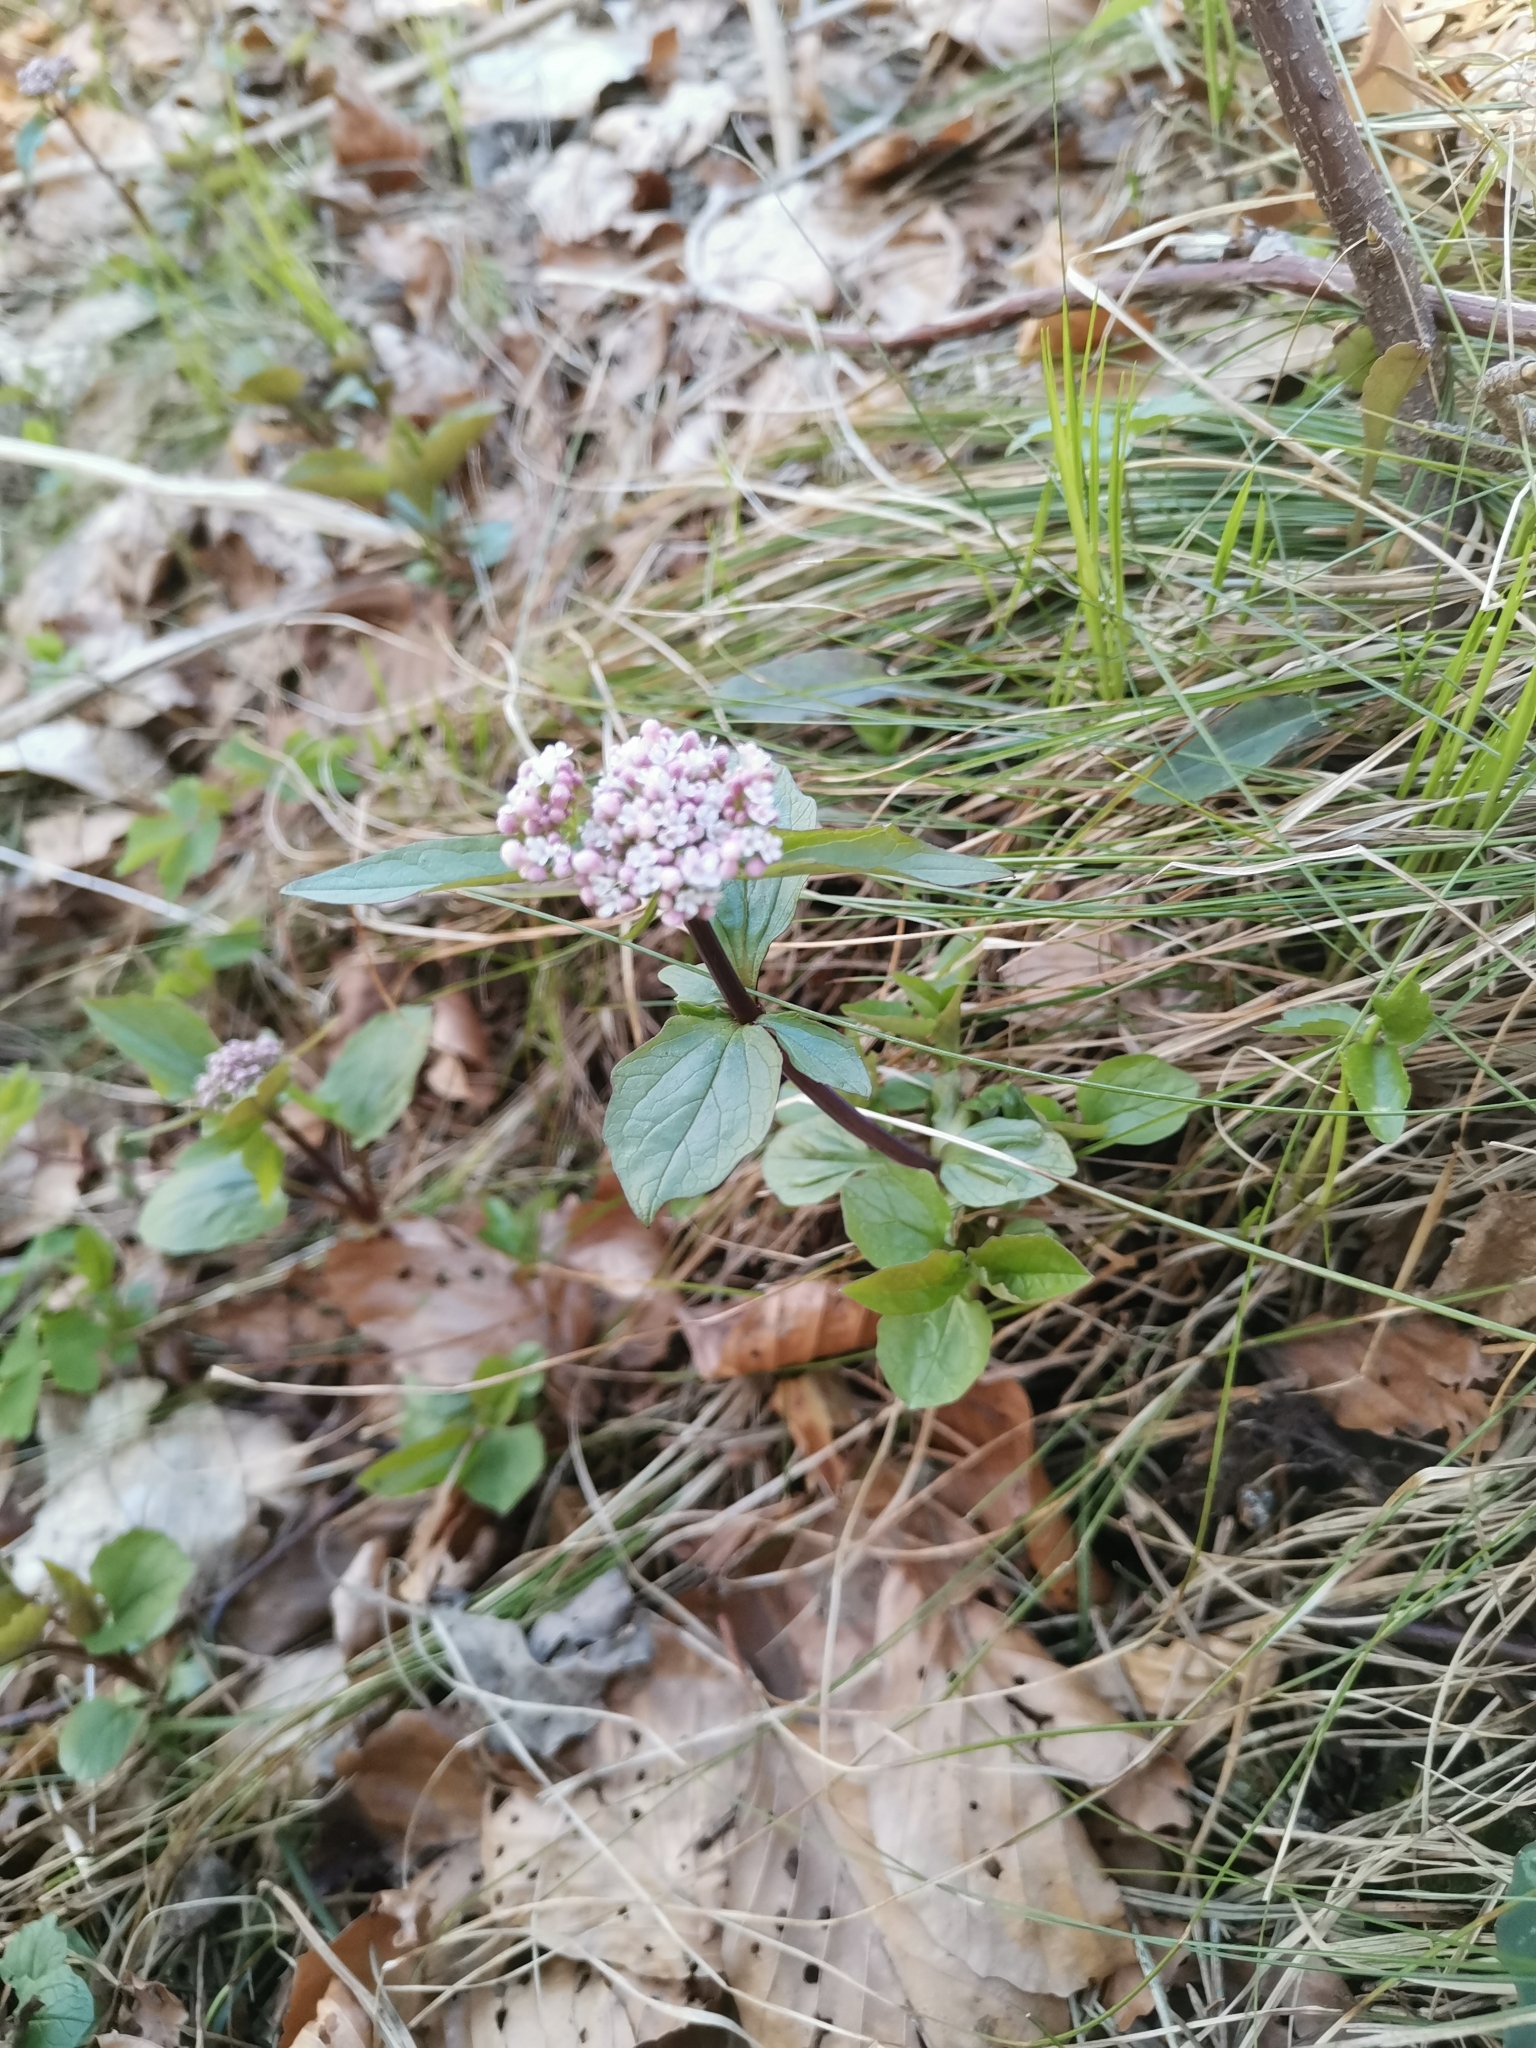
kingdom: Plantae
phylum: Tracheophyta
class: Magnoliopsida
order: Dipsacales
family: Caprifoliaceae
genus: Valeriana
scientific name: Valeriana tripteris
